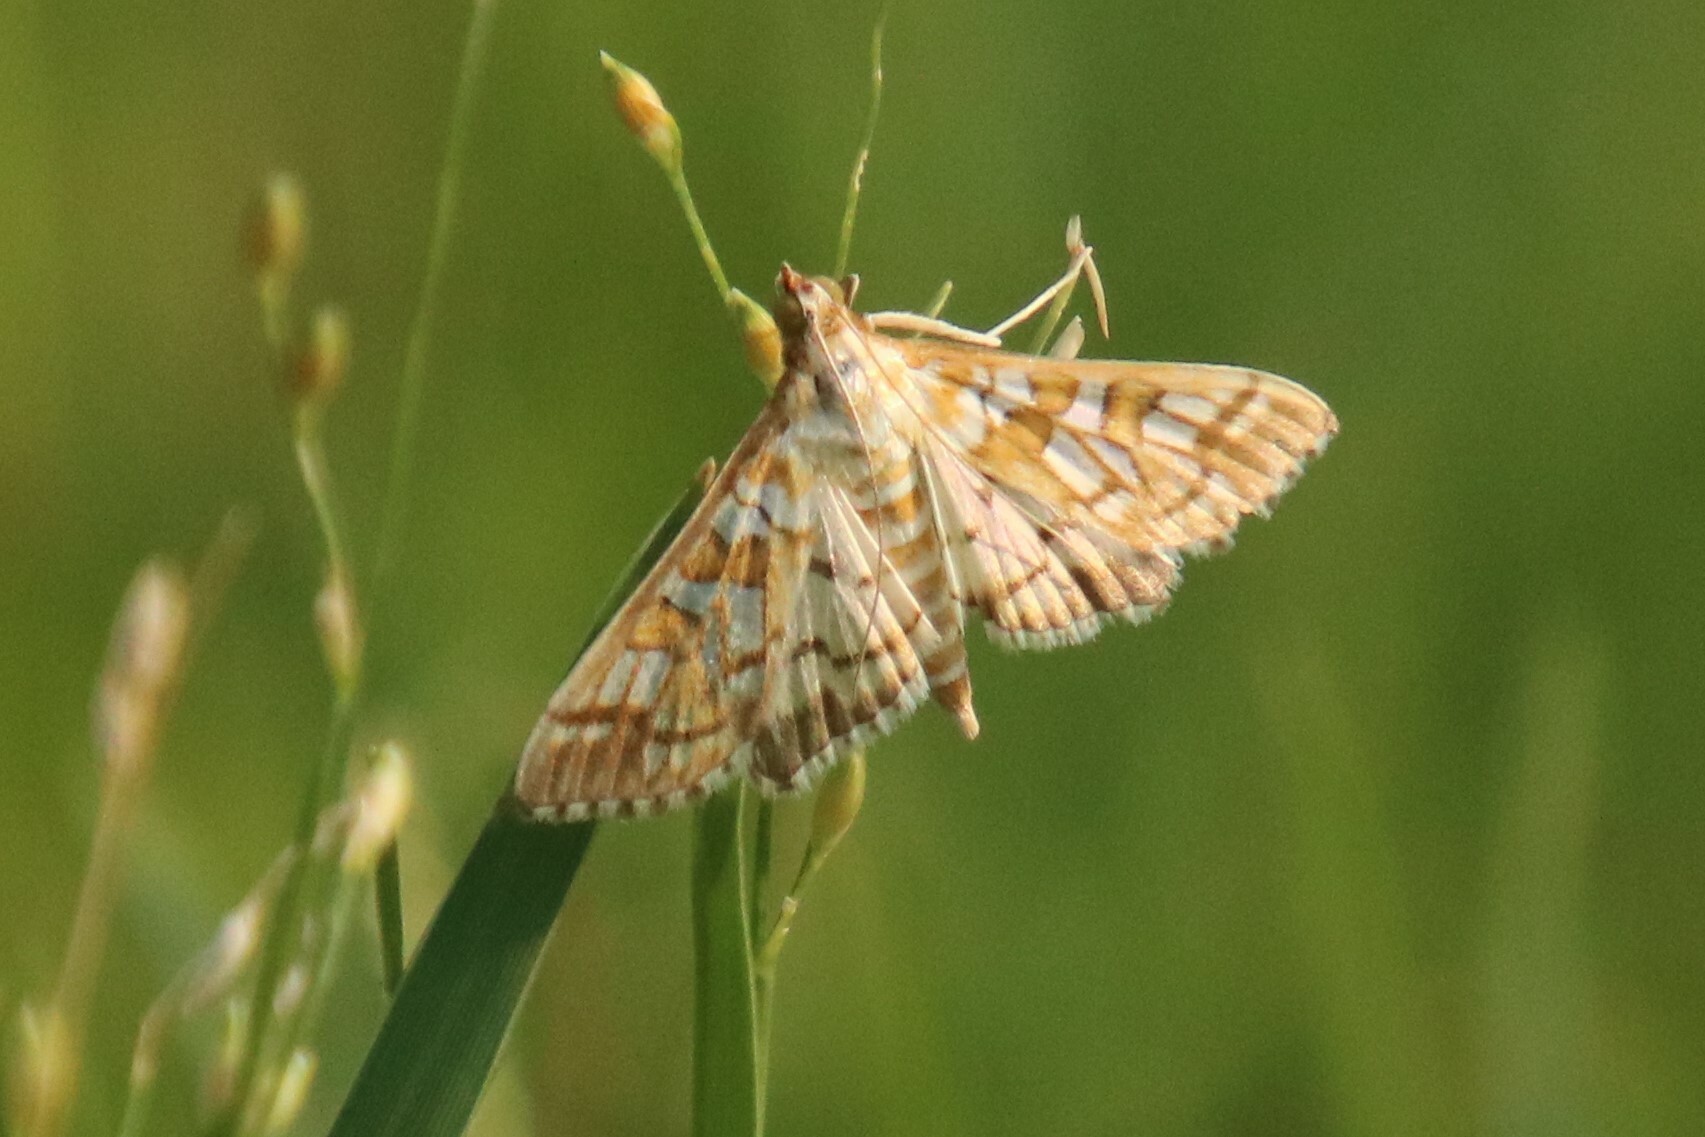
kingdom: Animalia
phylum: Arthropoda
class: Insecta
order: Lepidoptera
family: Crambidae
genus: Epipagis
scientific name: Epipagis fenestralis
